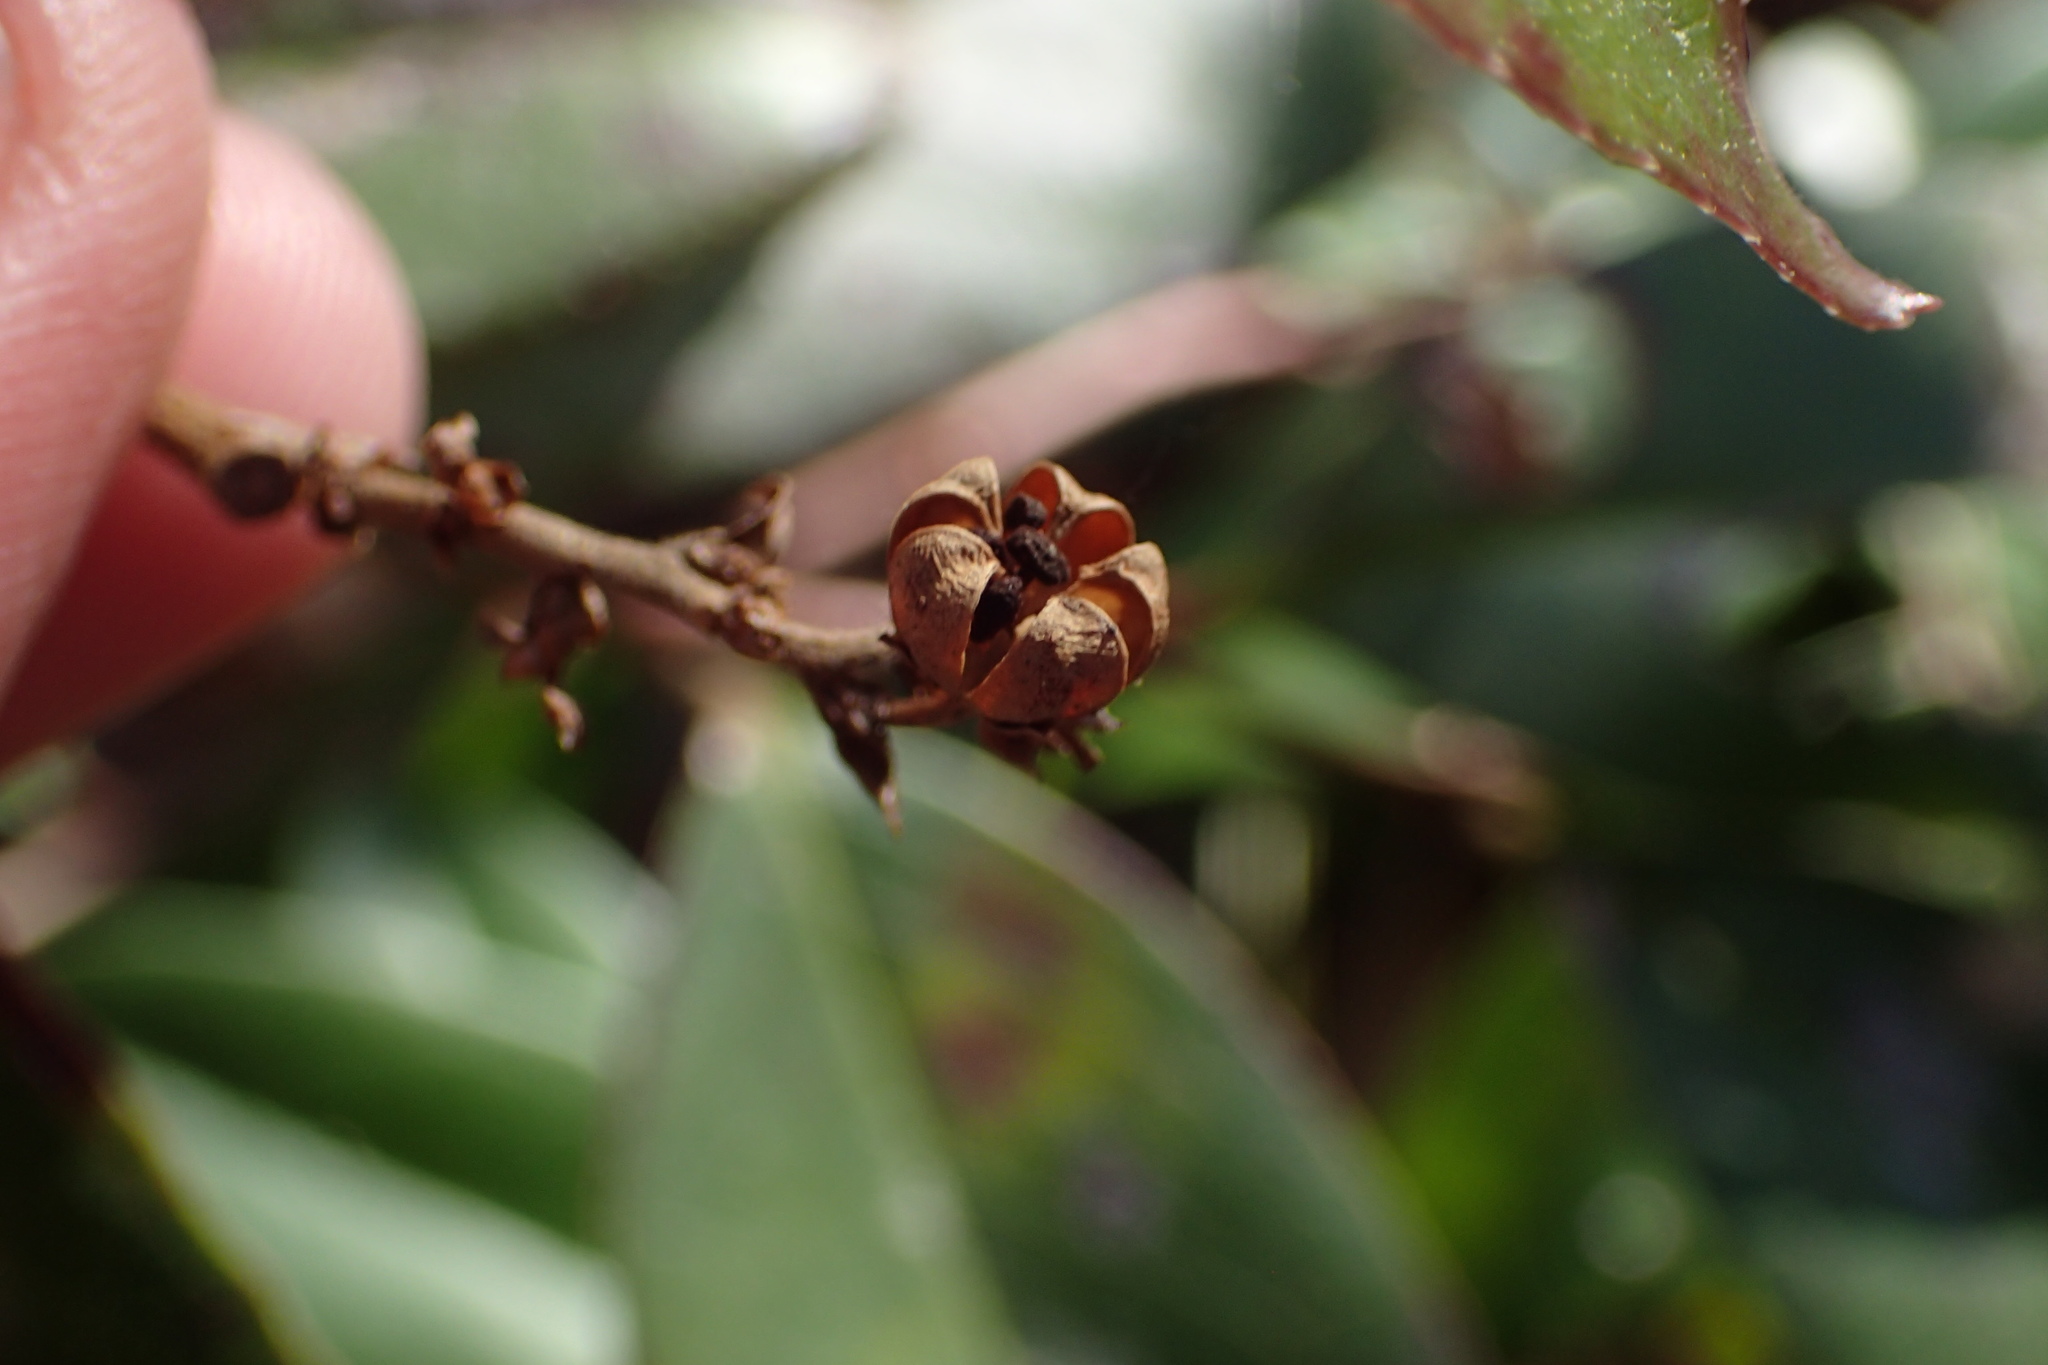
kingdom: Plantae
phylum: Tracheophyta
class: Magnoliopsida
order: Ericales
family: Ericaceae
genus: Leucothoe
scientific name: Leucothoe axillaris
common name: Leucothoe
